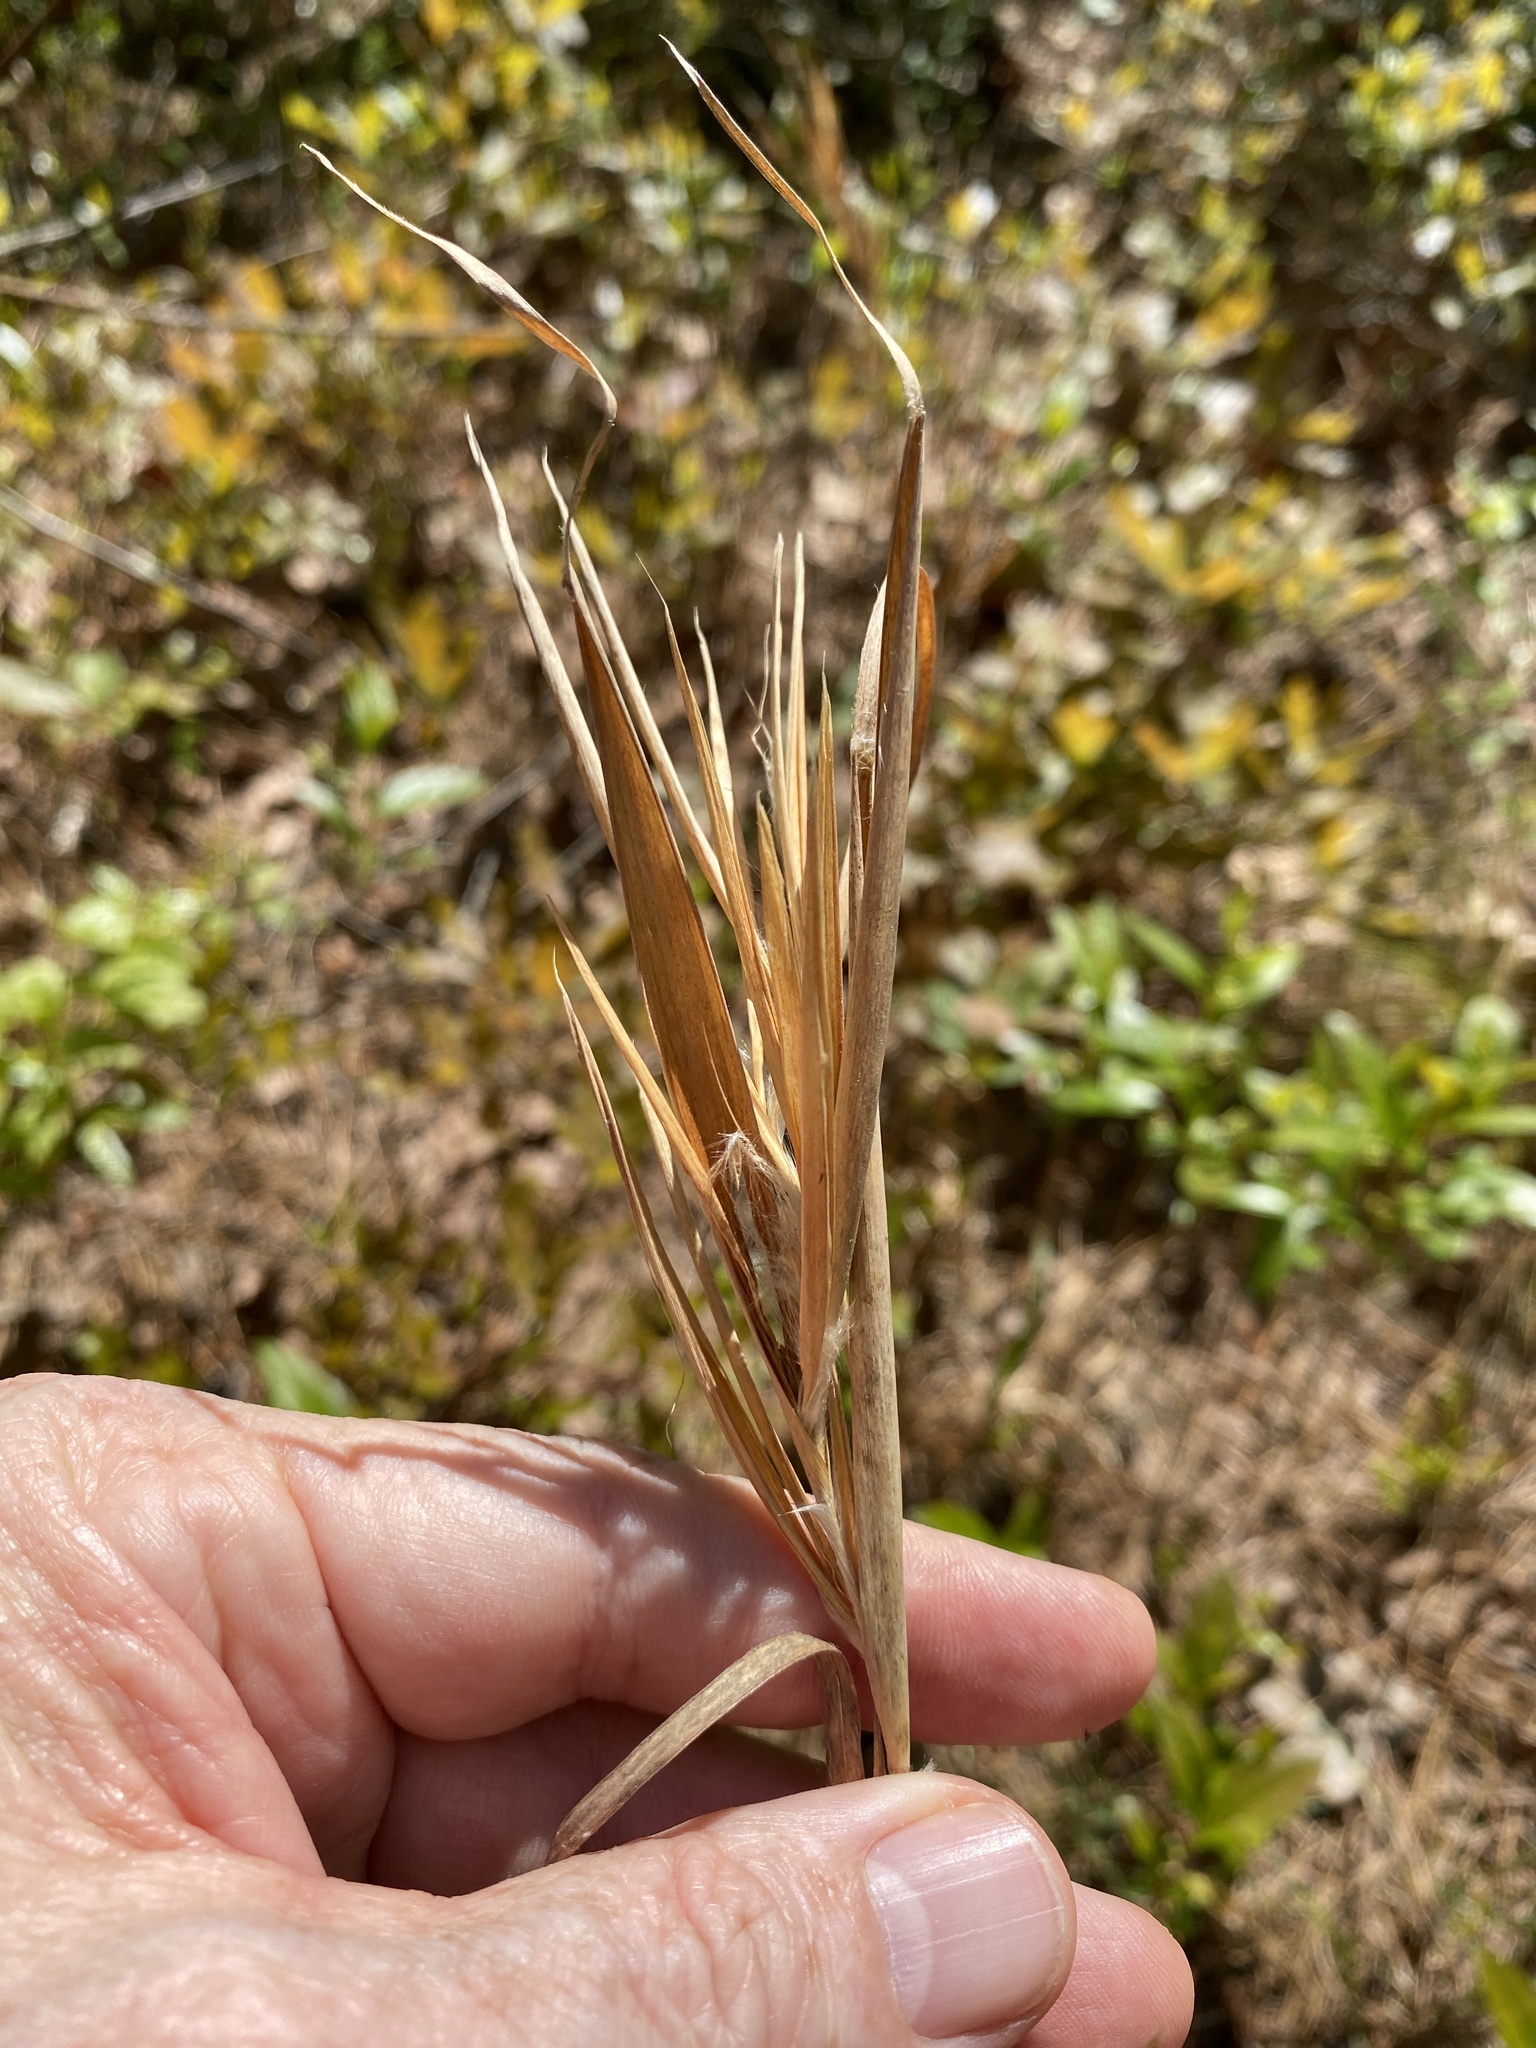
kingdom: Plantae
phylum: Tracheophyta
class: Liliopsida
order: Poales
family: Poaceae
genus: Andropogon
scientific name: Andropogon gyrans
